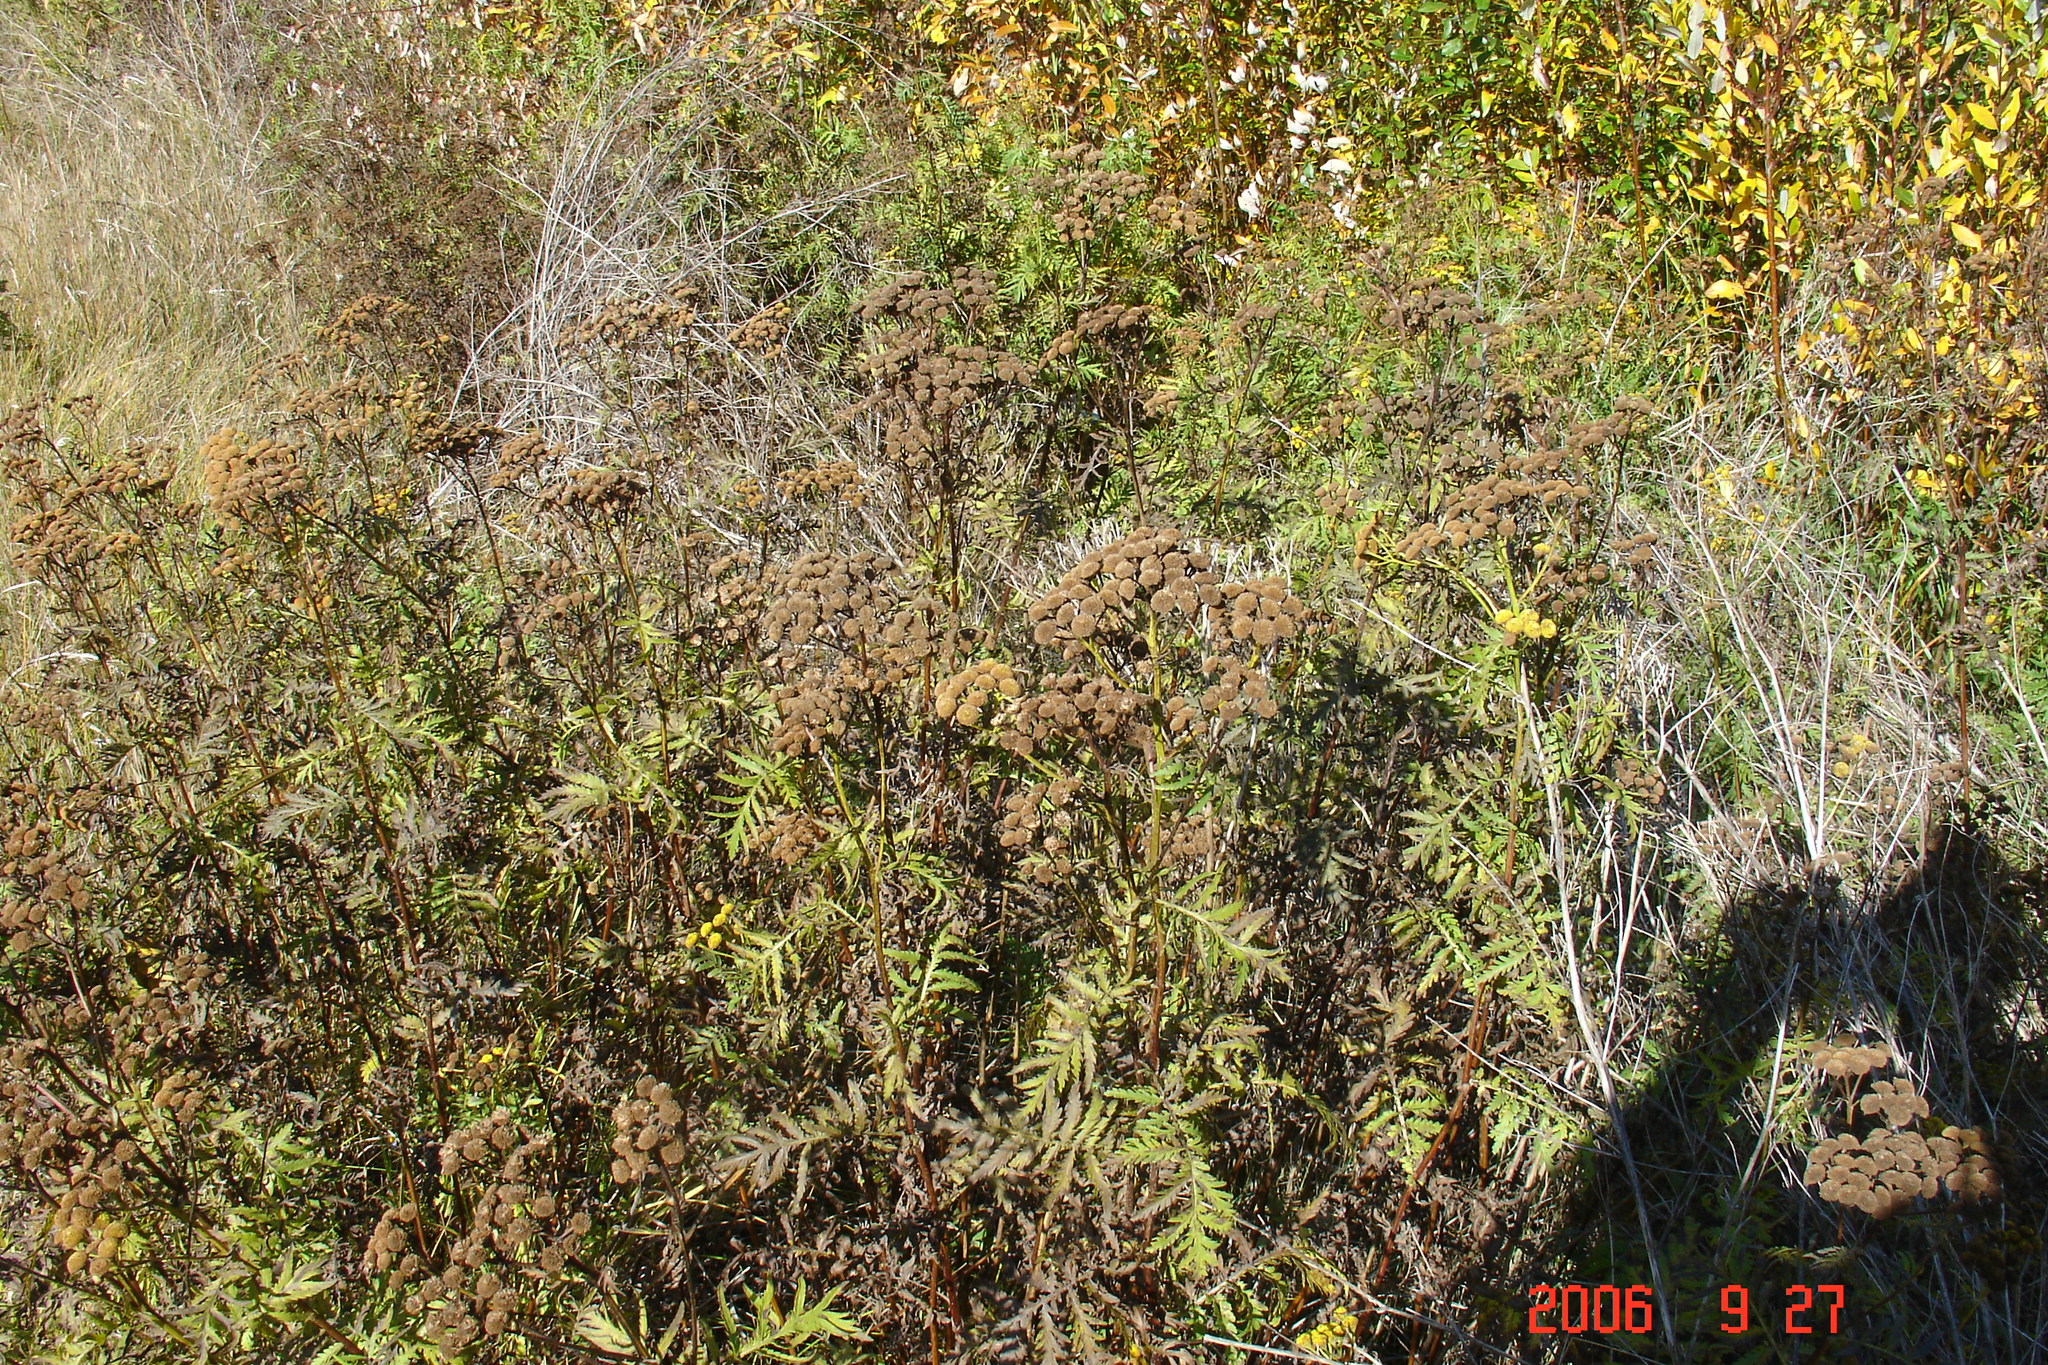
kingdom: Plantae
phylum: Tracheophyta
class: Magnoliopsida
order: Asterales
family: Asteraceae
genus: Tanacetum
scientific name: Tanacetum vulgare
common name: Common tansy
